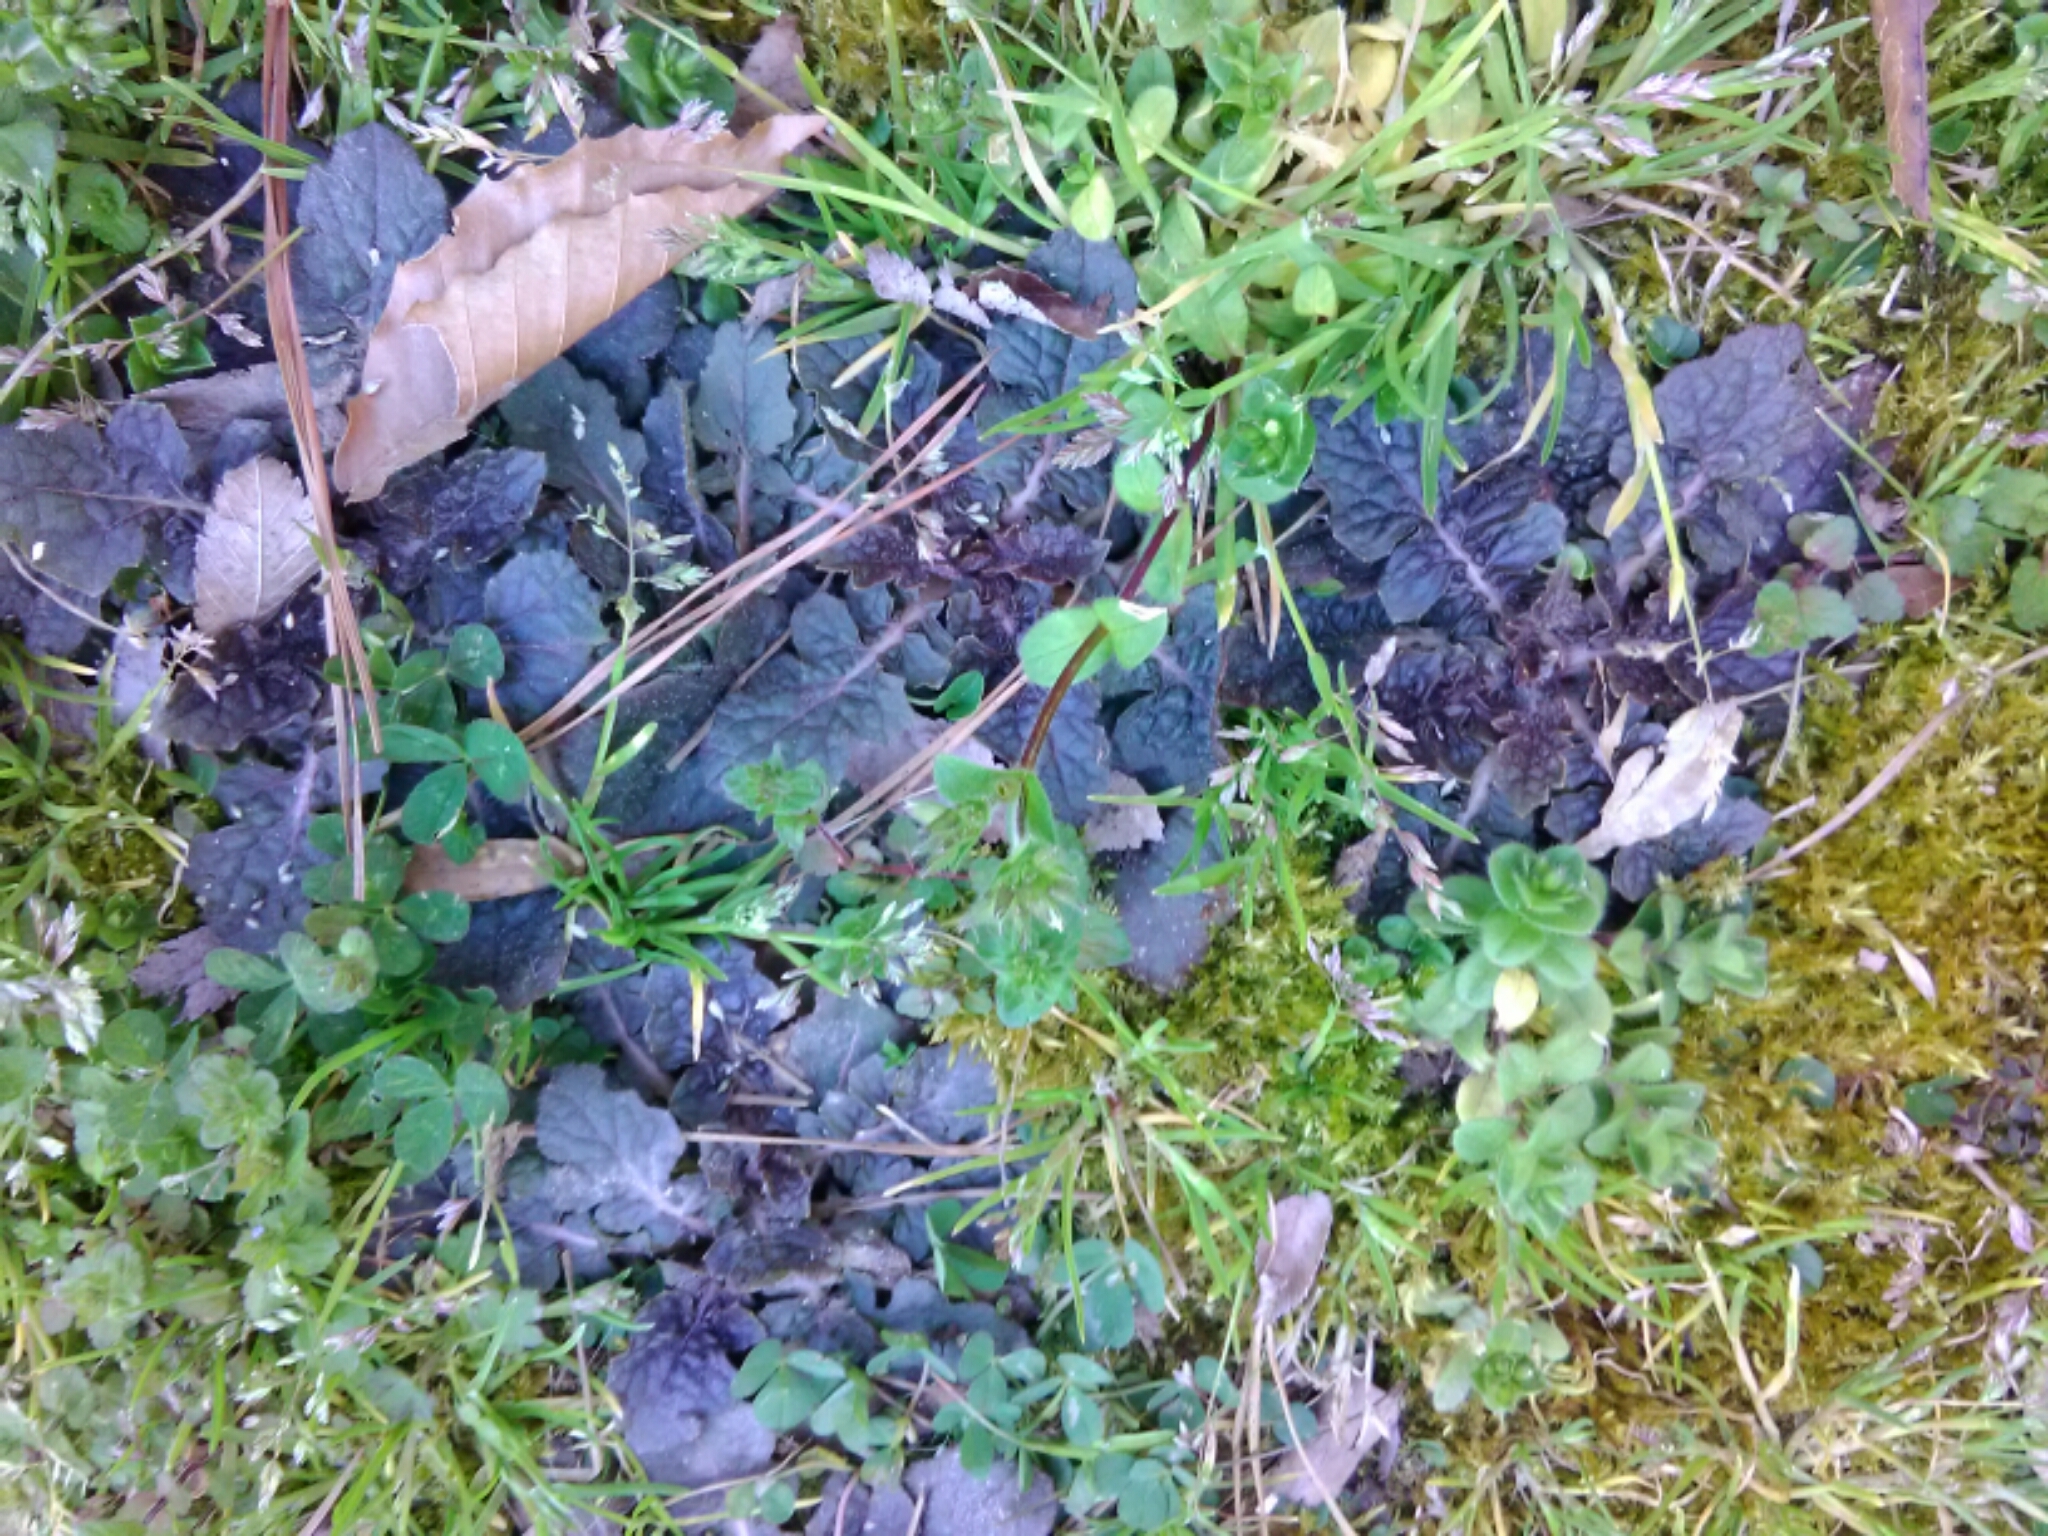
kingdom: Plantae
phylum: Tracheophyta
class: Magnoliopsida
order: Lamiales
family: Lamiaceae
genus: Salvia
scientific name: Salvia lyrata
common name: Cancerweed
